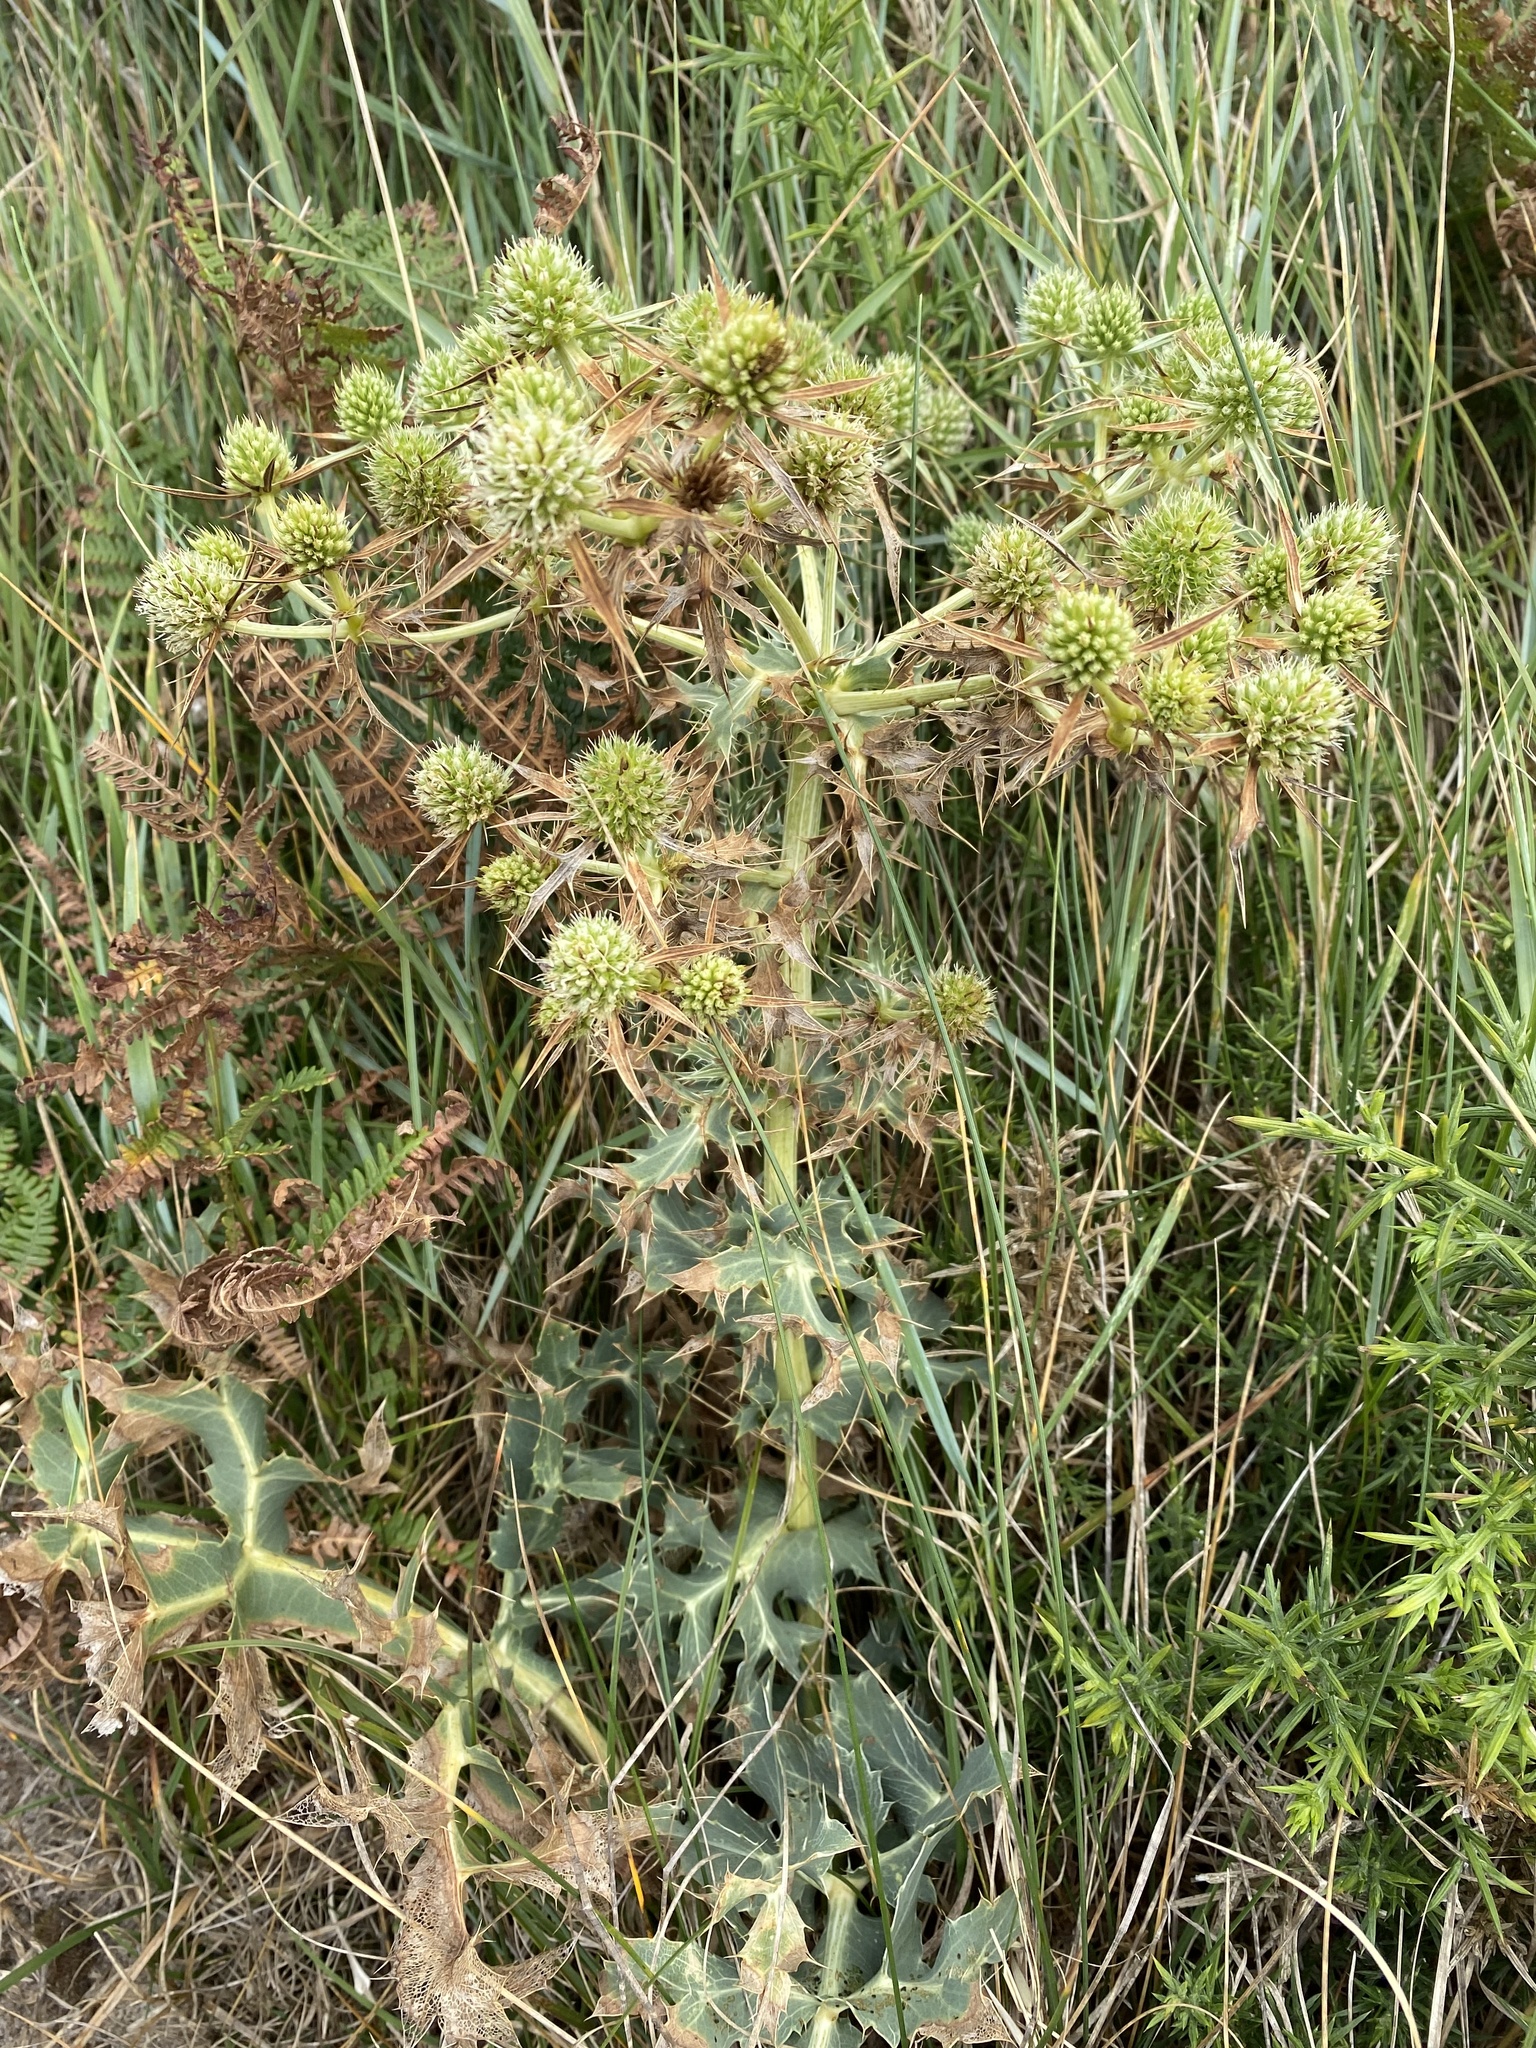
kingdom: Plantae
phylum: Tracheophyta
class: Magnoliopsida
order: Apiales
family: Apiaceae
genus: Eryngium
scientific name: Eryngium campestre
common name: Field eryngo
